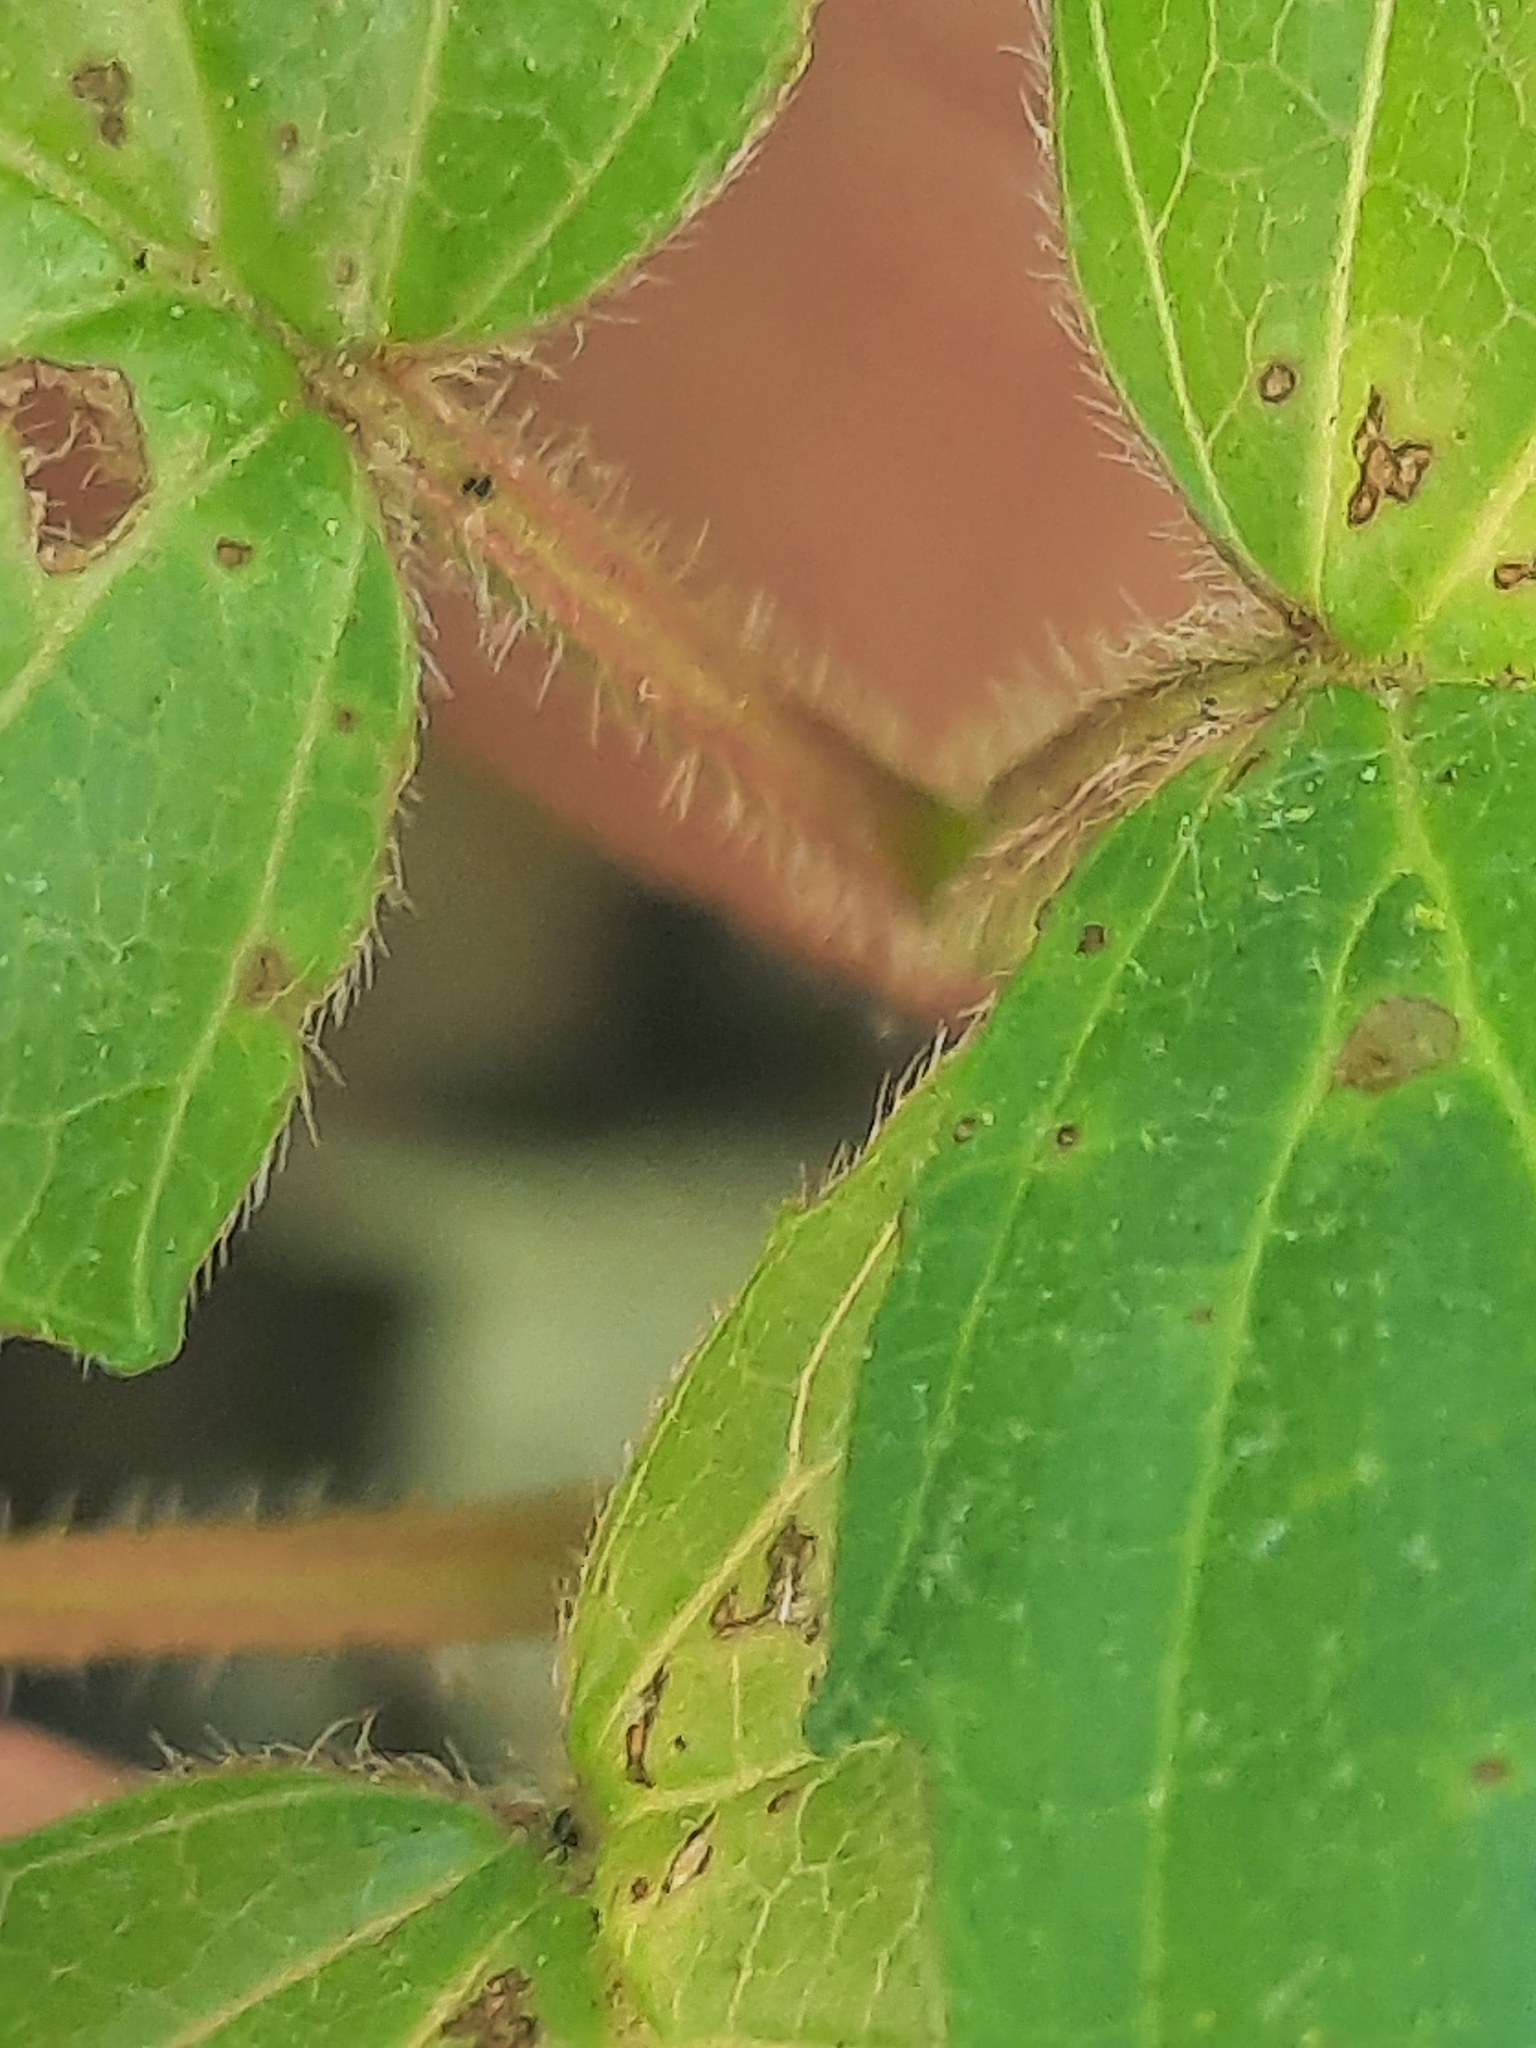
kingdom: Plantae
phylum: Tracheophyta
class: Magnoliopsida
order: Dipsacales
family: Viburnaceae
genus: Viburnum
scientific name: Viburnum recognitum
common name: Northern arrow-wood
